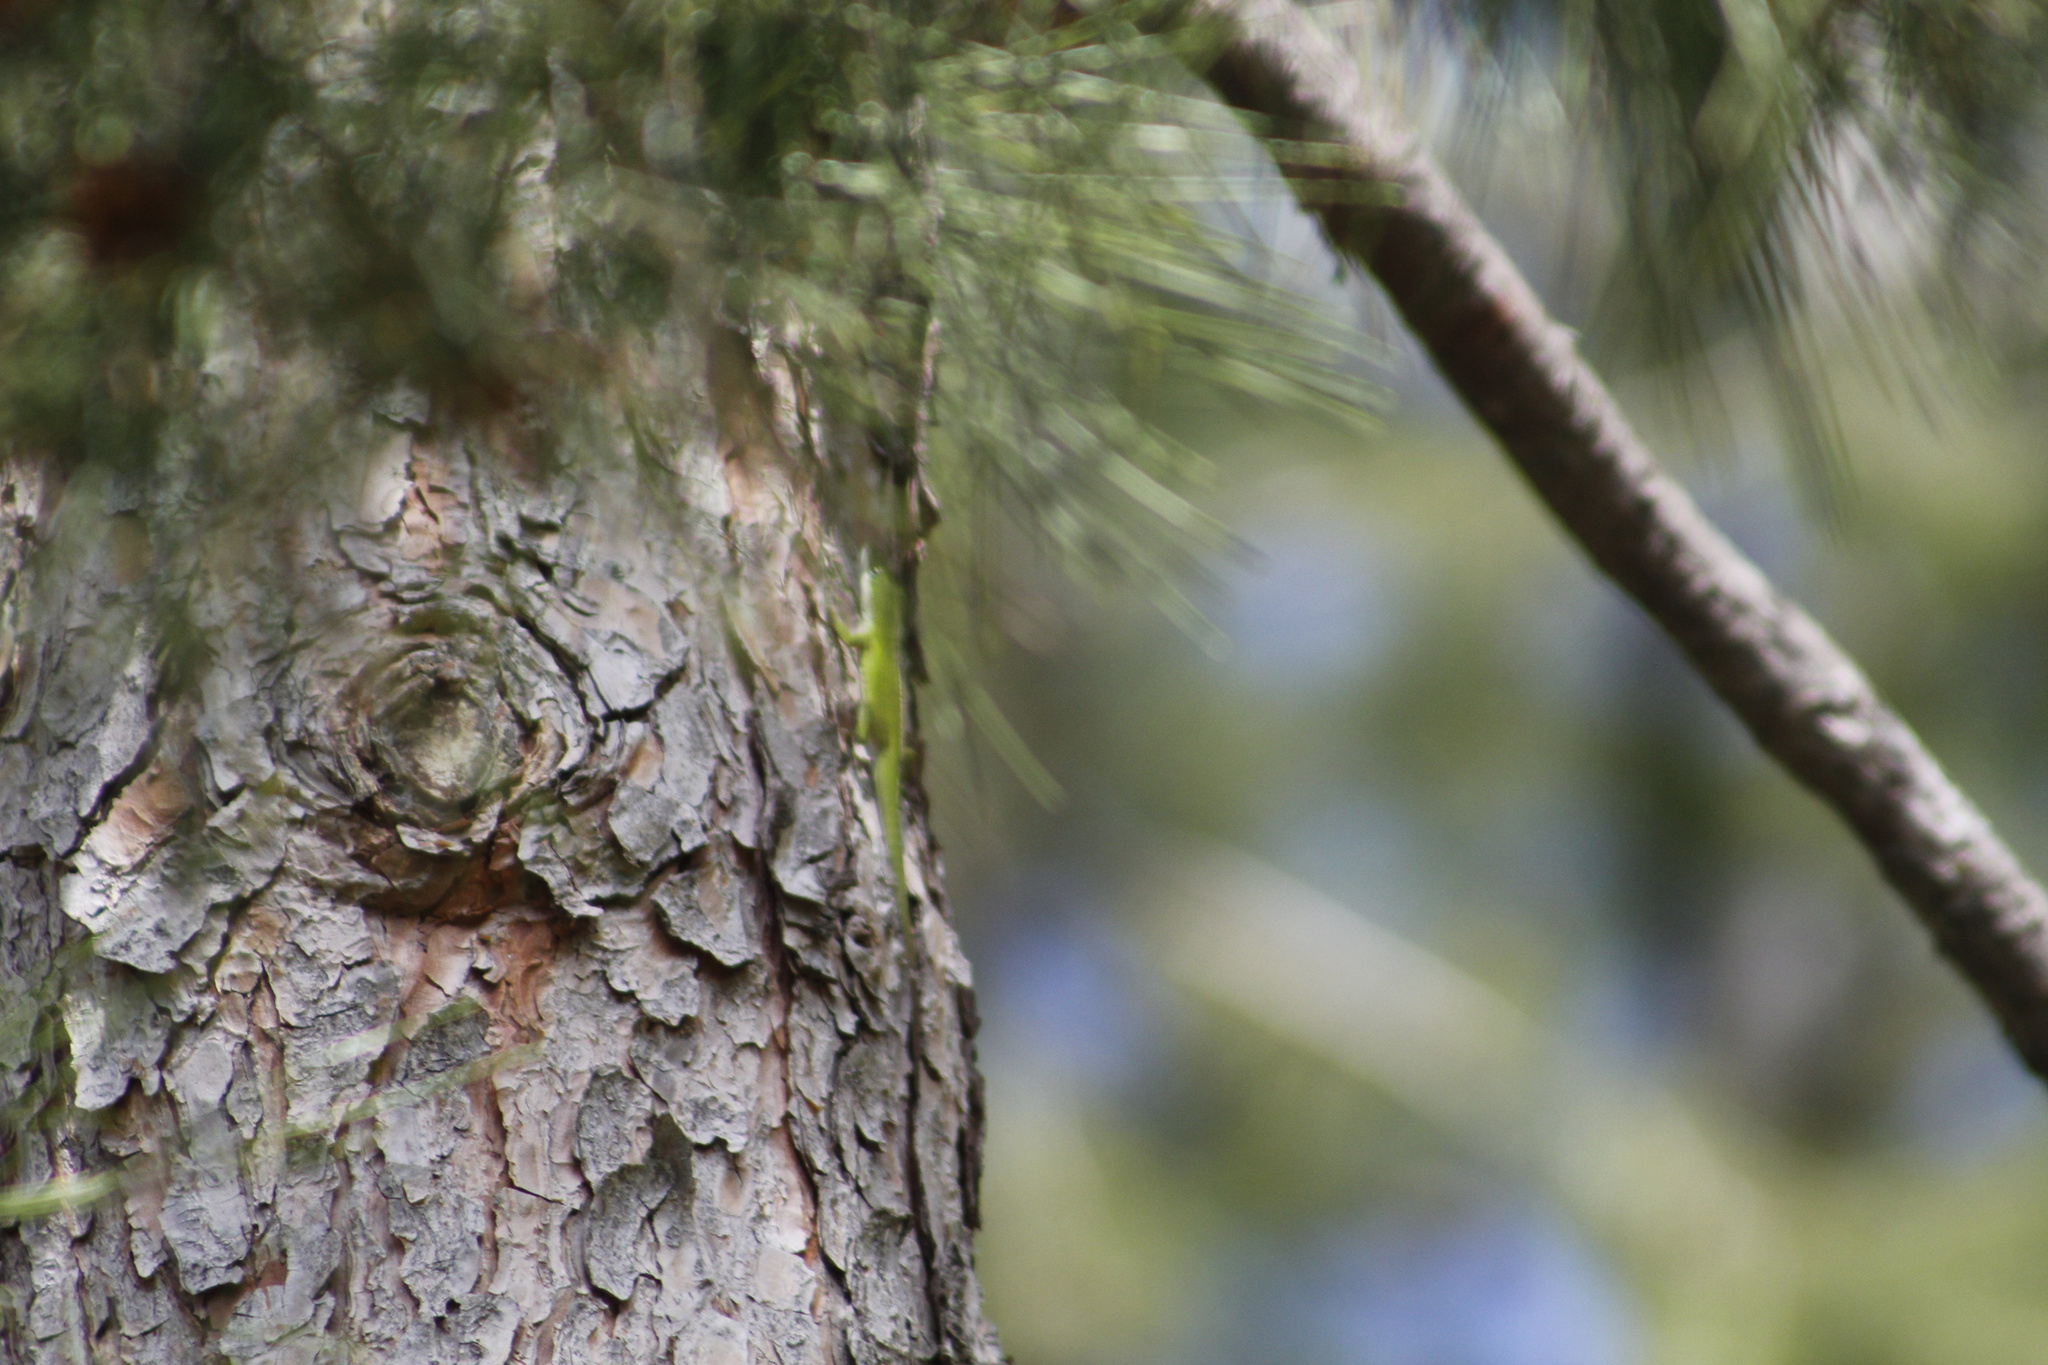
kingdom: Animalia
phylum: Chordata
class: Squamata
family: Dactyloidae
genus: Anolis
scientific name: Anolis carolinensis
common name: Green anole
